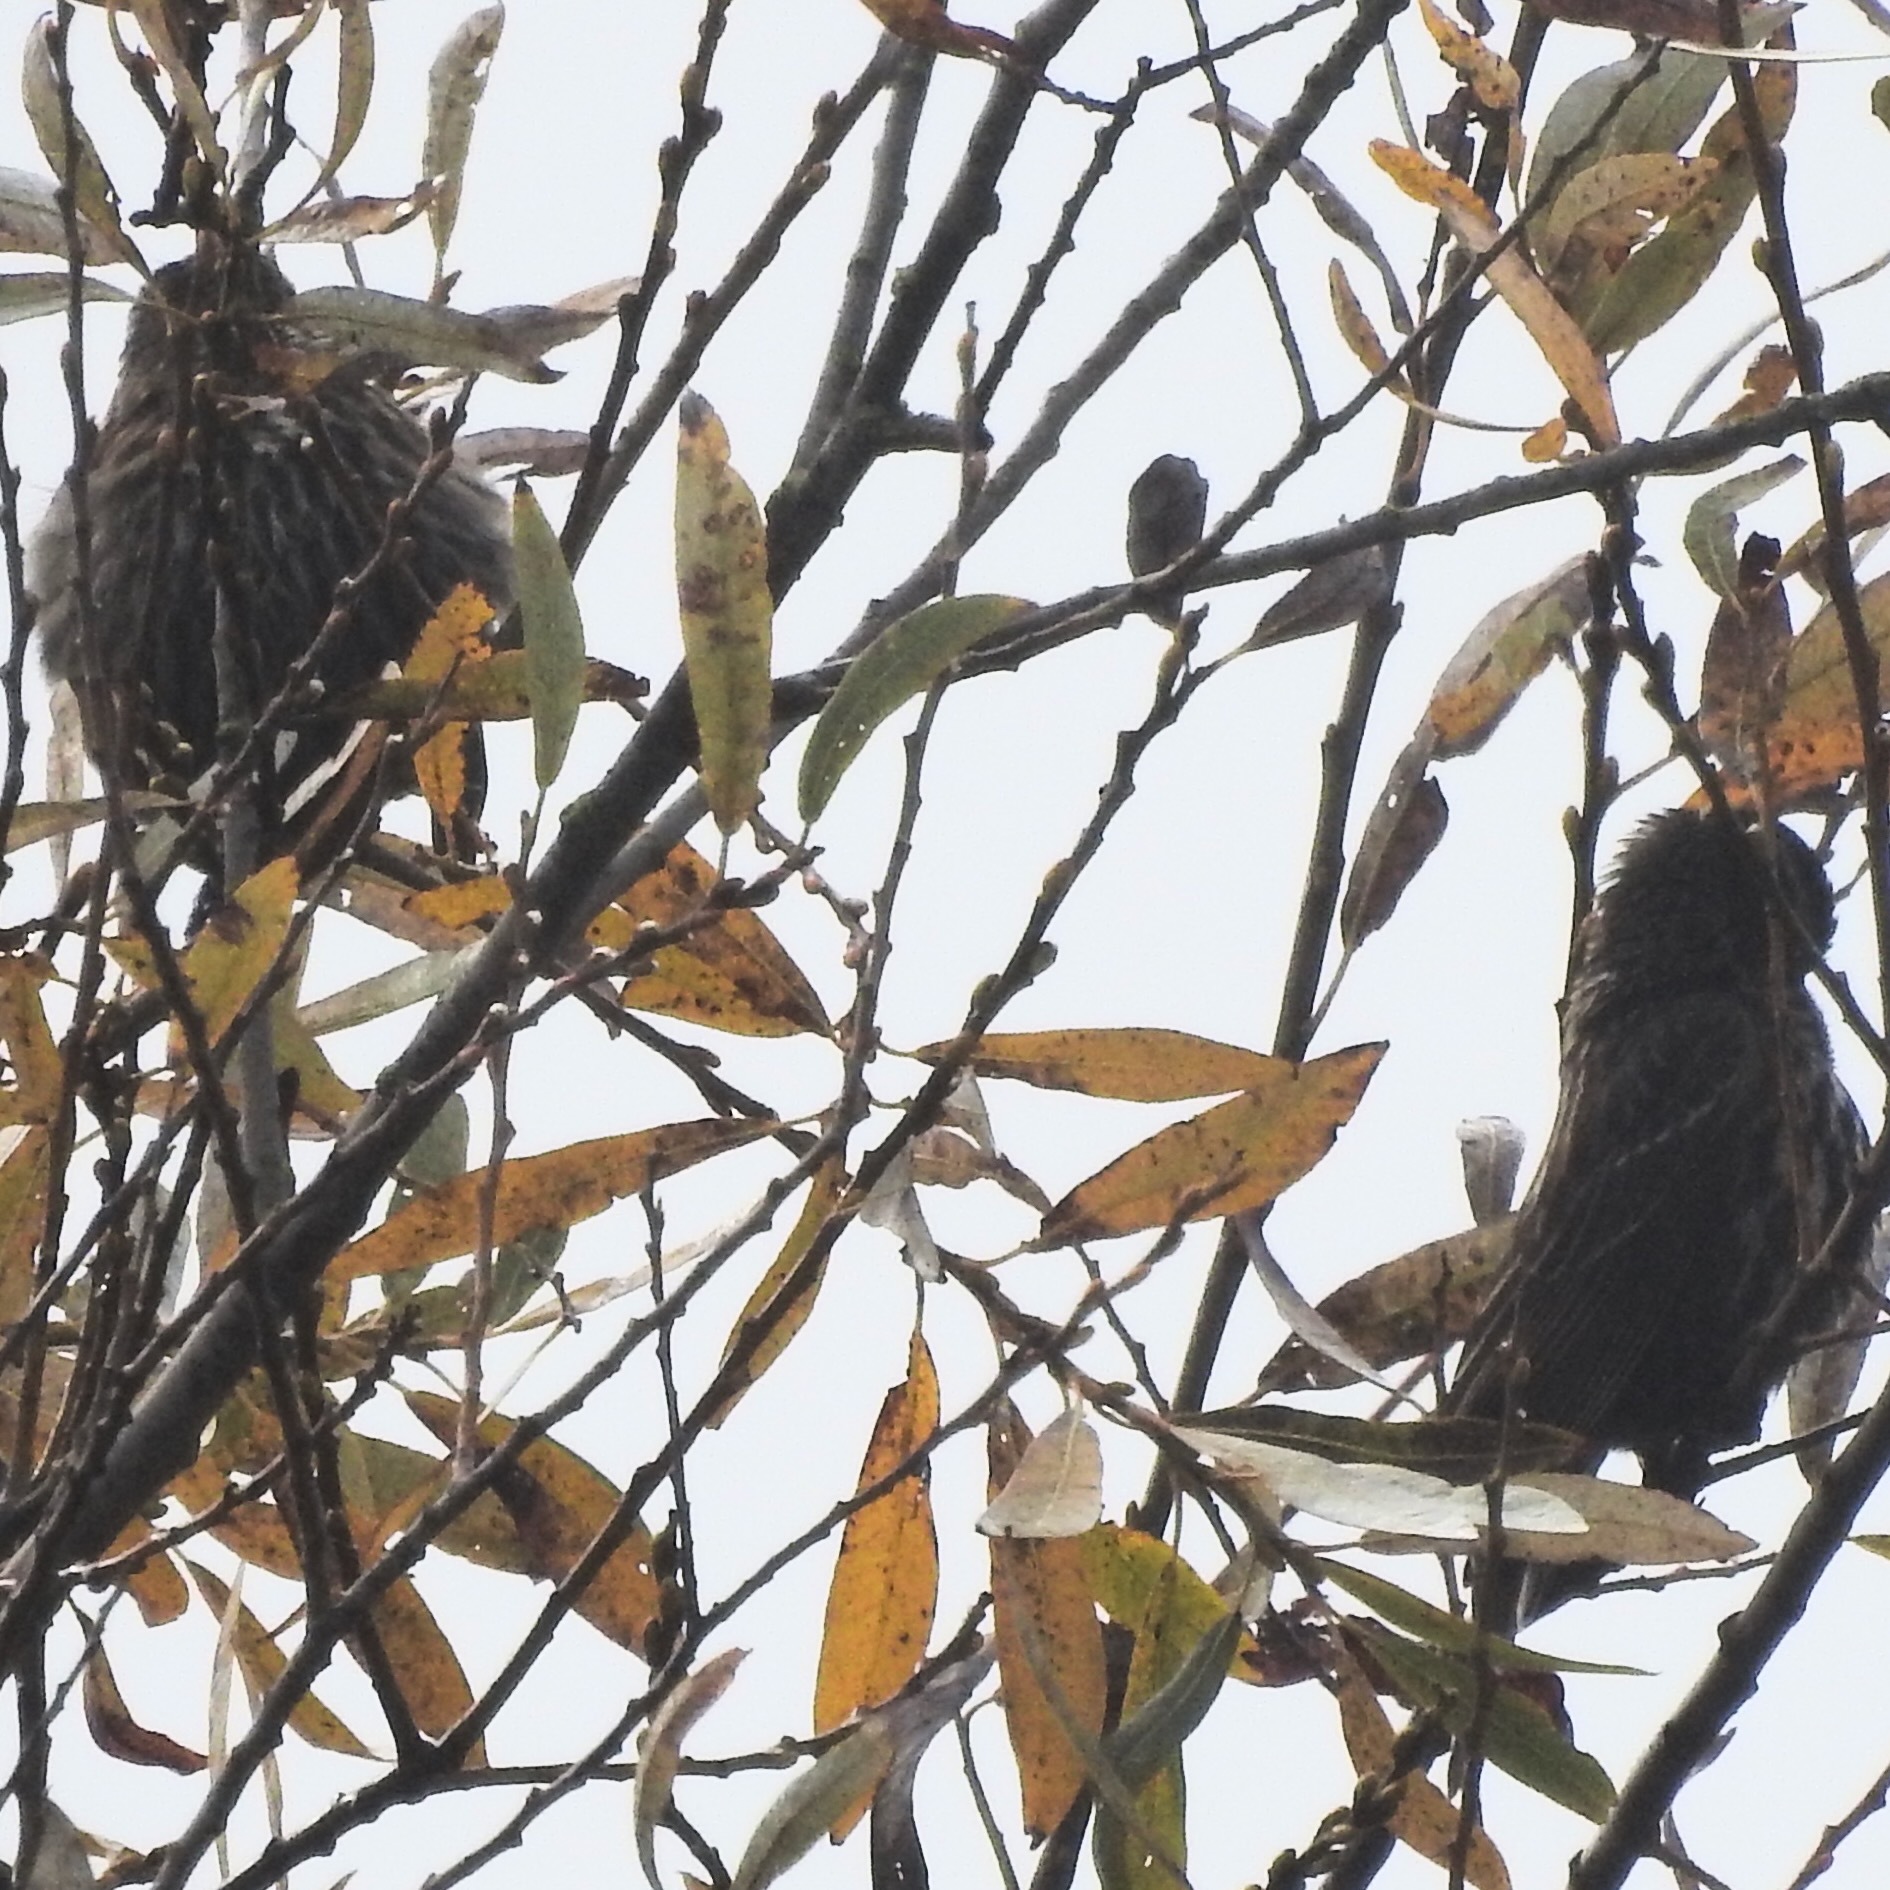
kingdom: Animalia
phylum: Chordata
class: Aves
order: Passeriformes
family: Icteridae
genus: Agelaius
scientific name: Agelaius phoeniceus
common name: Red-winged blackbird
